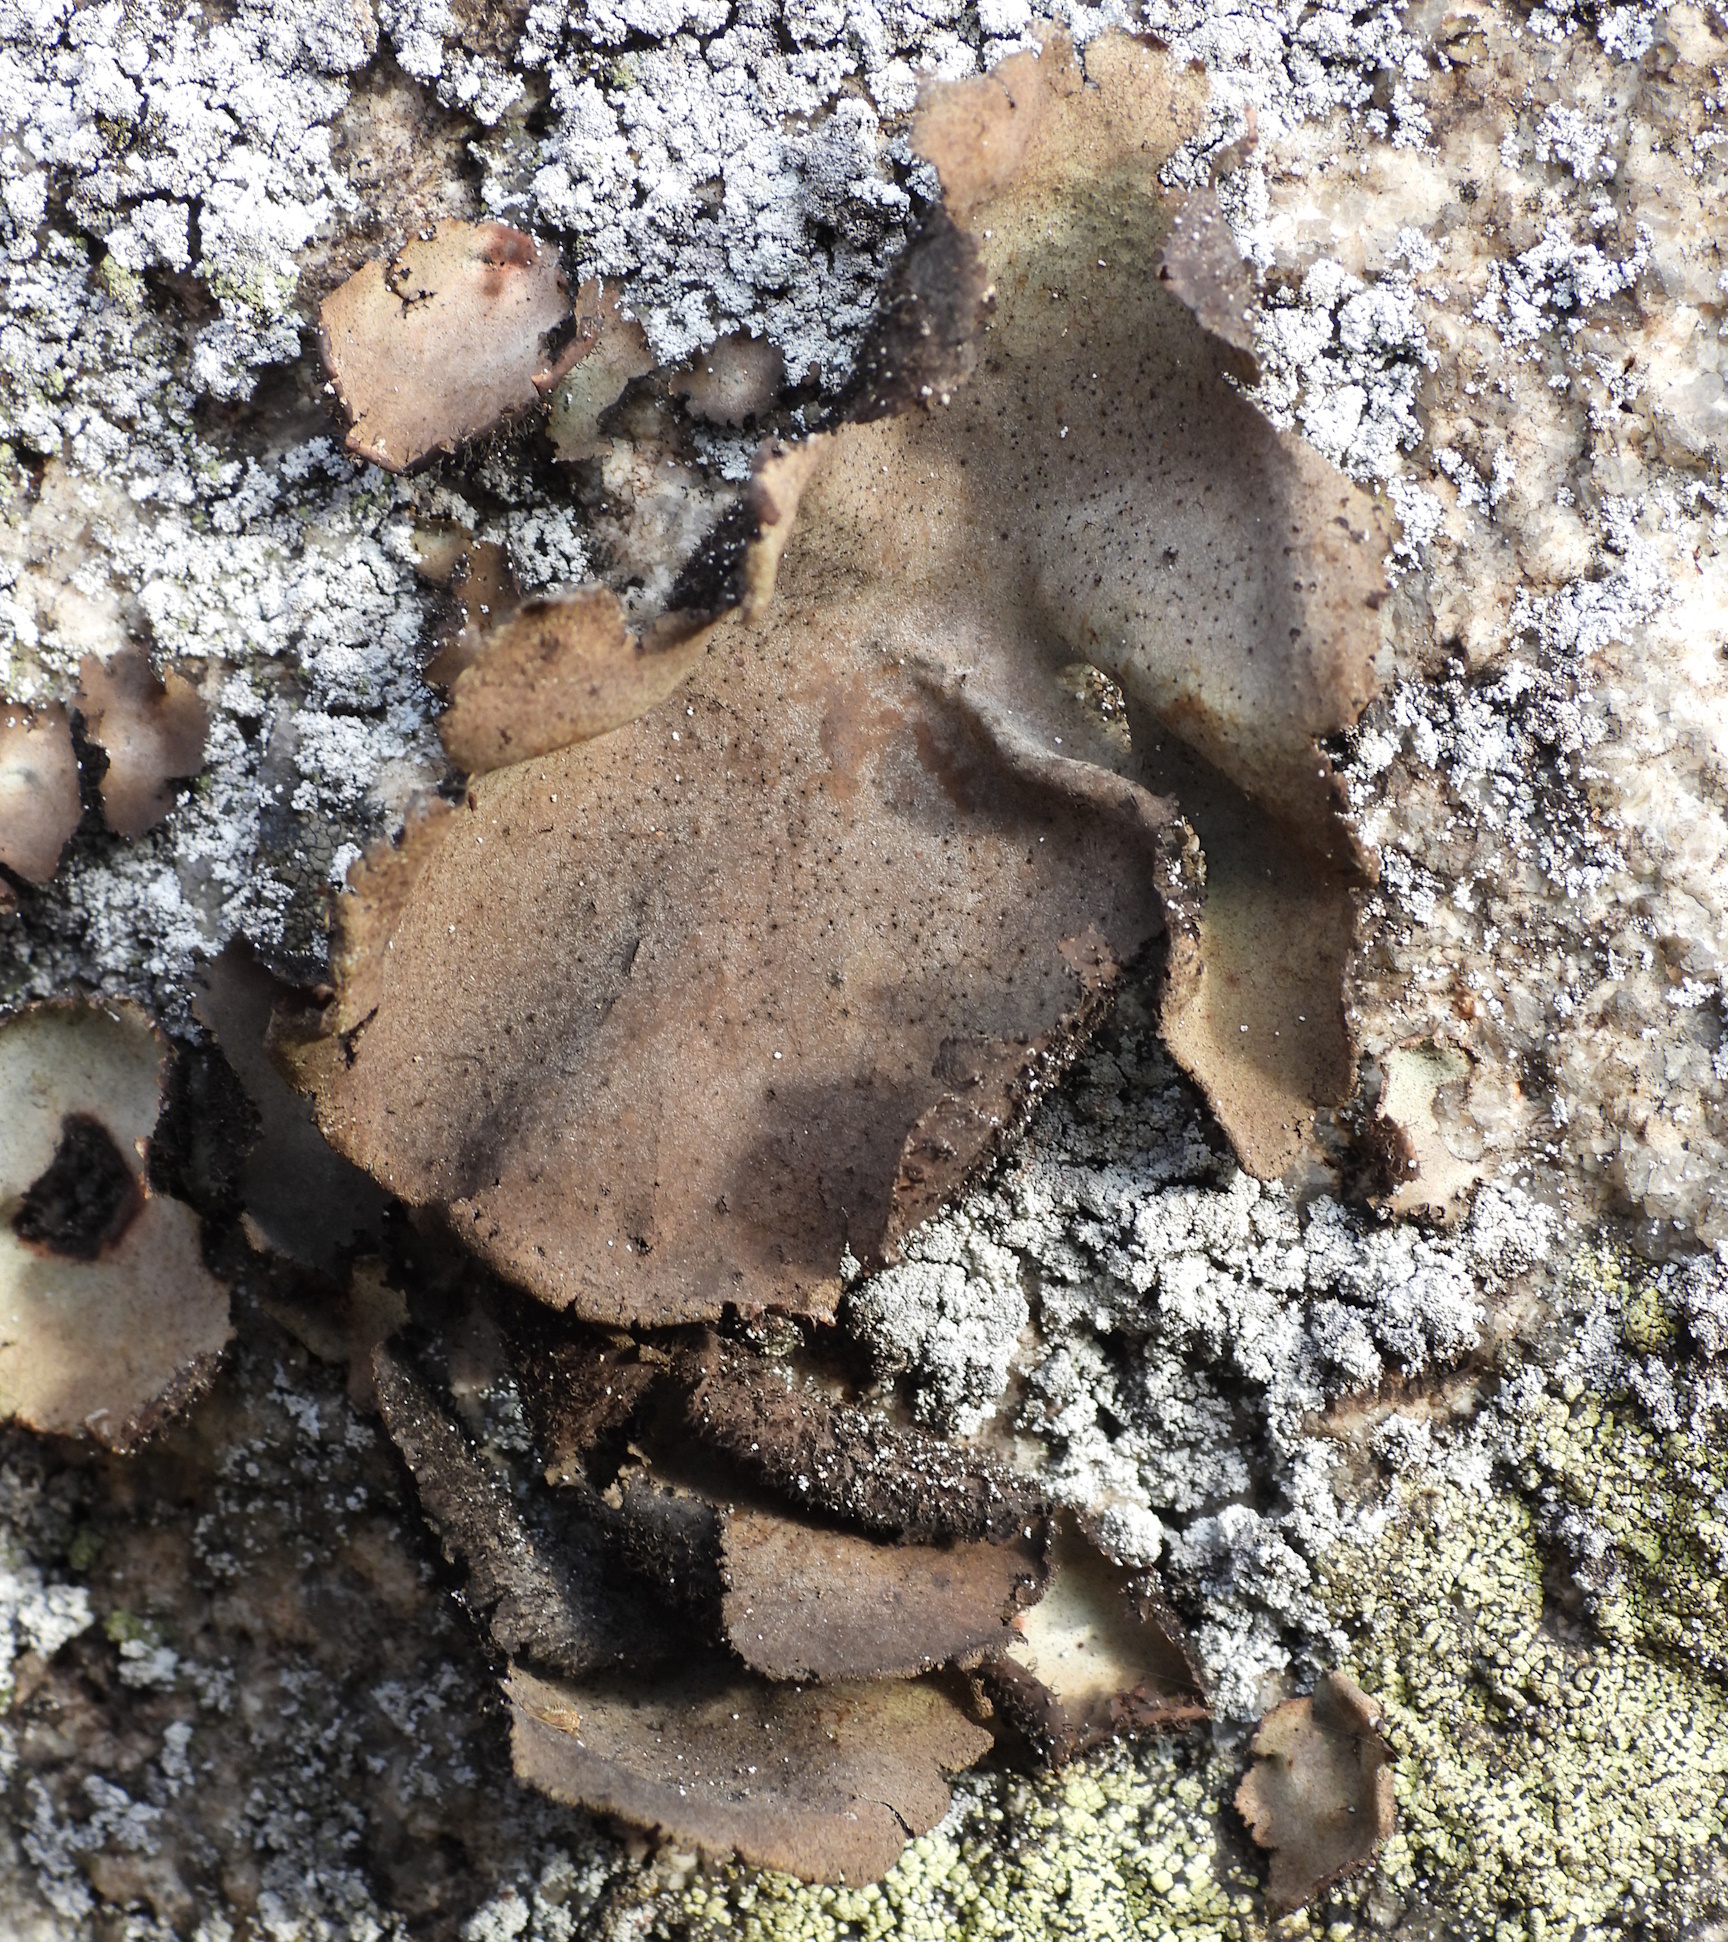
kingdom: Fungi
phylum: Ascomycota
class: Lecanoromycetes
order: Umbilicariales
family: Umbilicariaceae
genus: Umbilicaria
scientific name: Umbilicaria vellea
